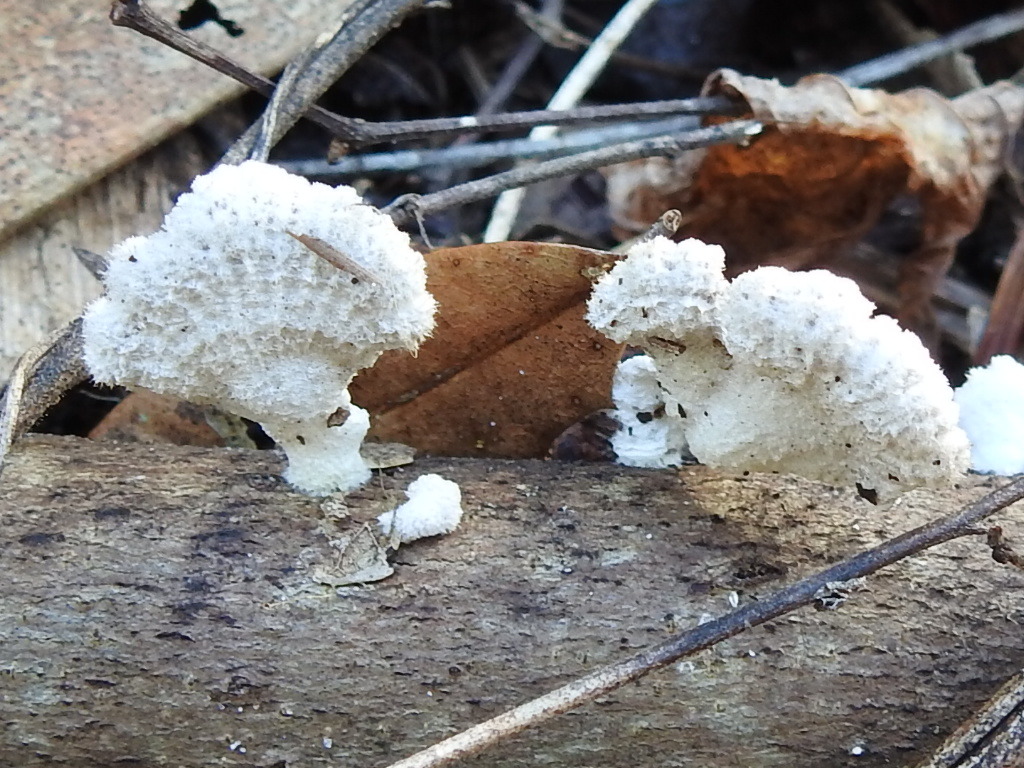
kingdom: Fungi
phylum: Basidiomycota
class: Agaricomycetes
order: Agaricales
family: Schizophyllaceae
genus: Schizophyllum
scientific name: Schizophyllum commune
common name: Common porecrust
